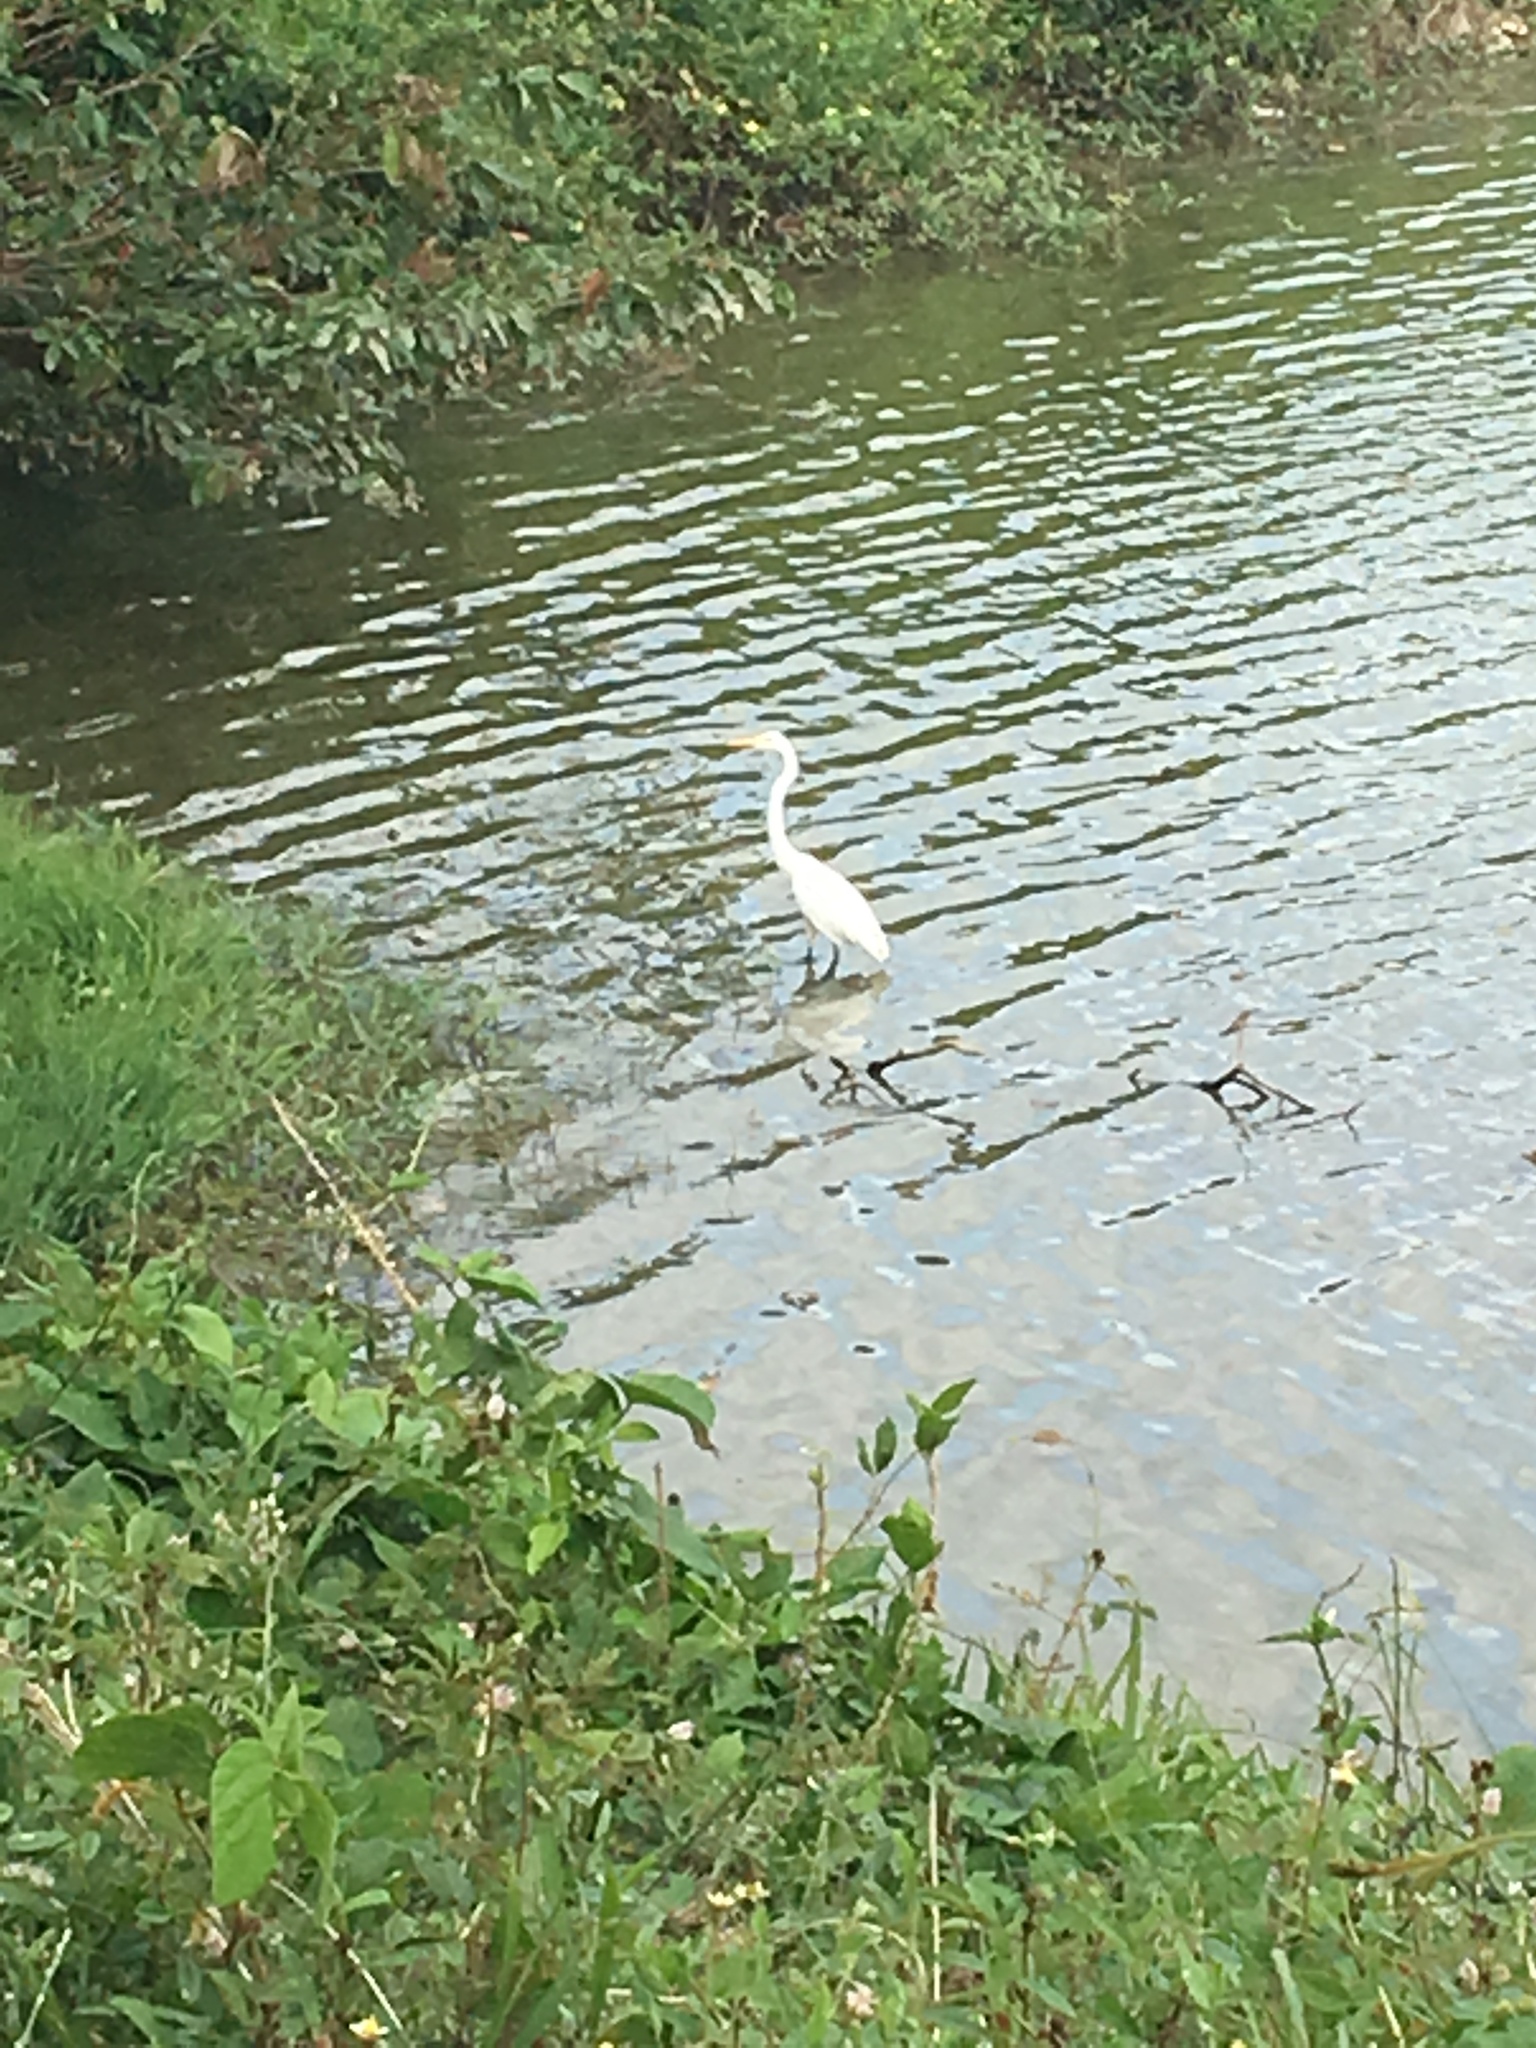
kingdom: Animalia
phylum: Chordata
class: Aves
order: Pelecaniformes
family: Ardeidae
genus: Ardea
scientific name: Ardea alba
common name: Great egret
